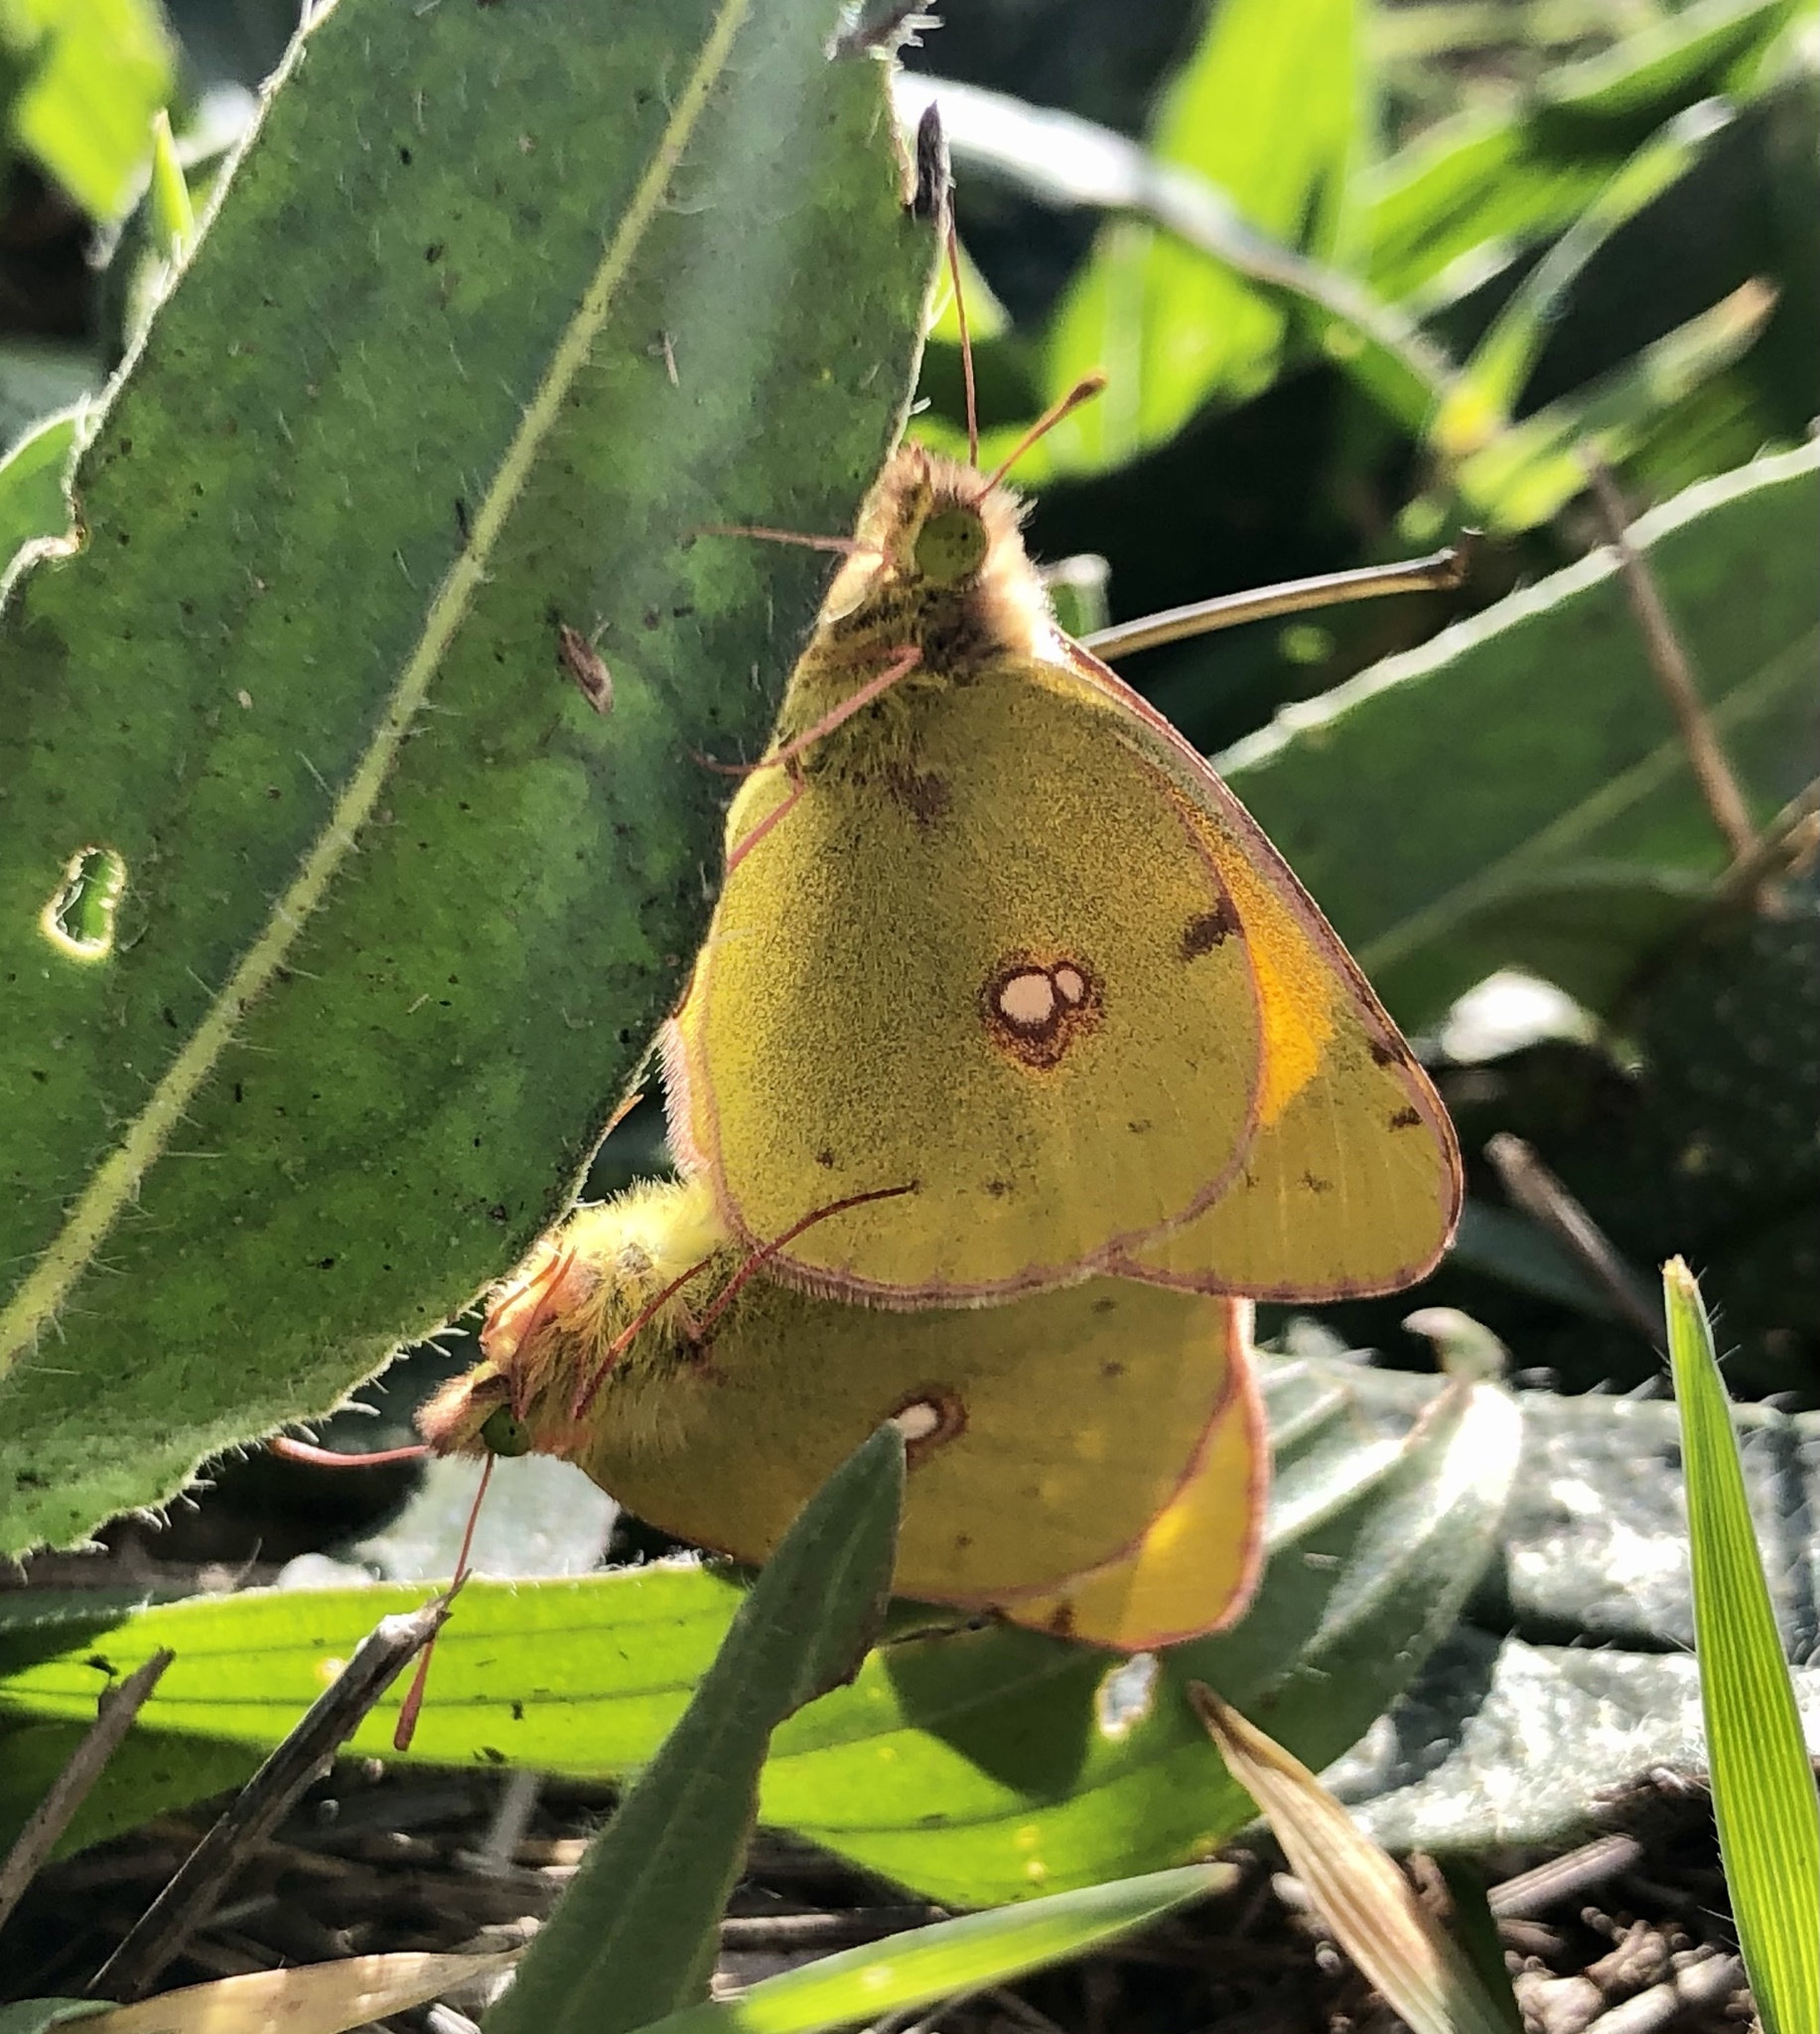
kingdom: Animalia
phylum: Arthropoda
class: Insecta
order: Lepidoptera
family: Pieridae
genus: Colias
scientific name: Colias croceus
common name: Clouded yellow
